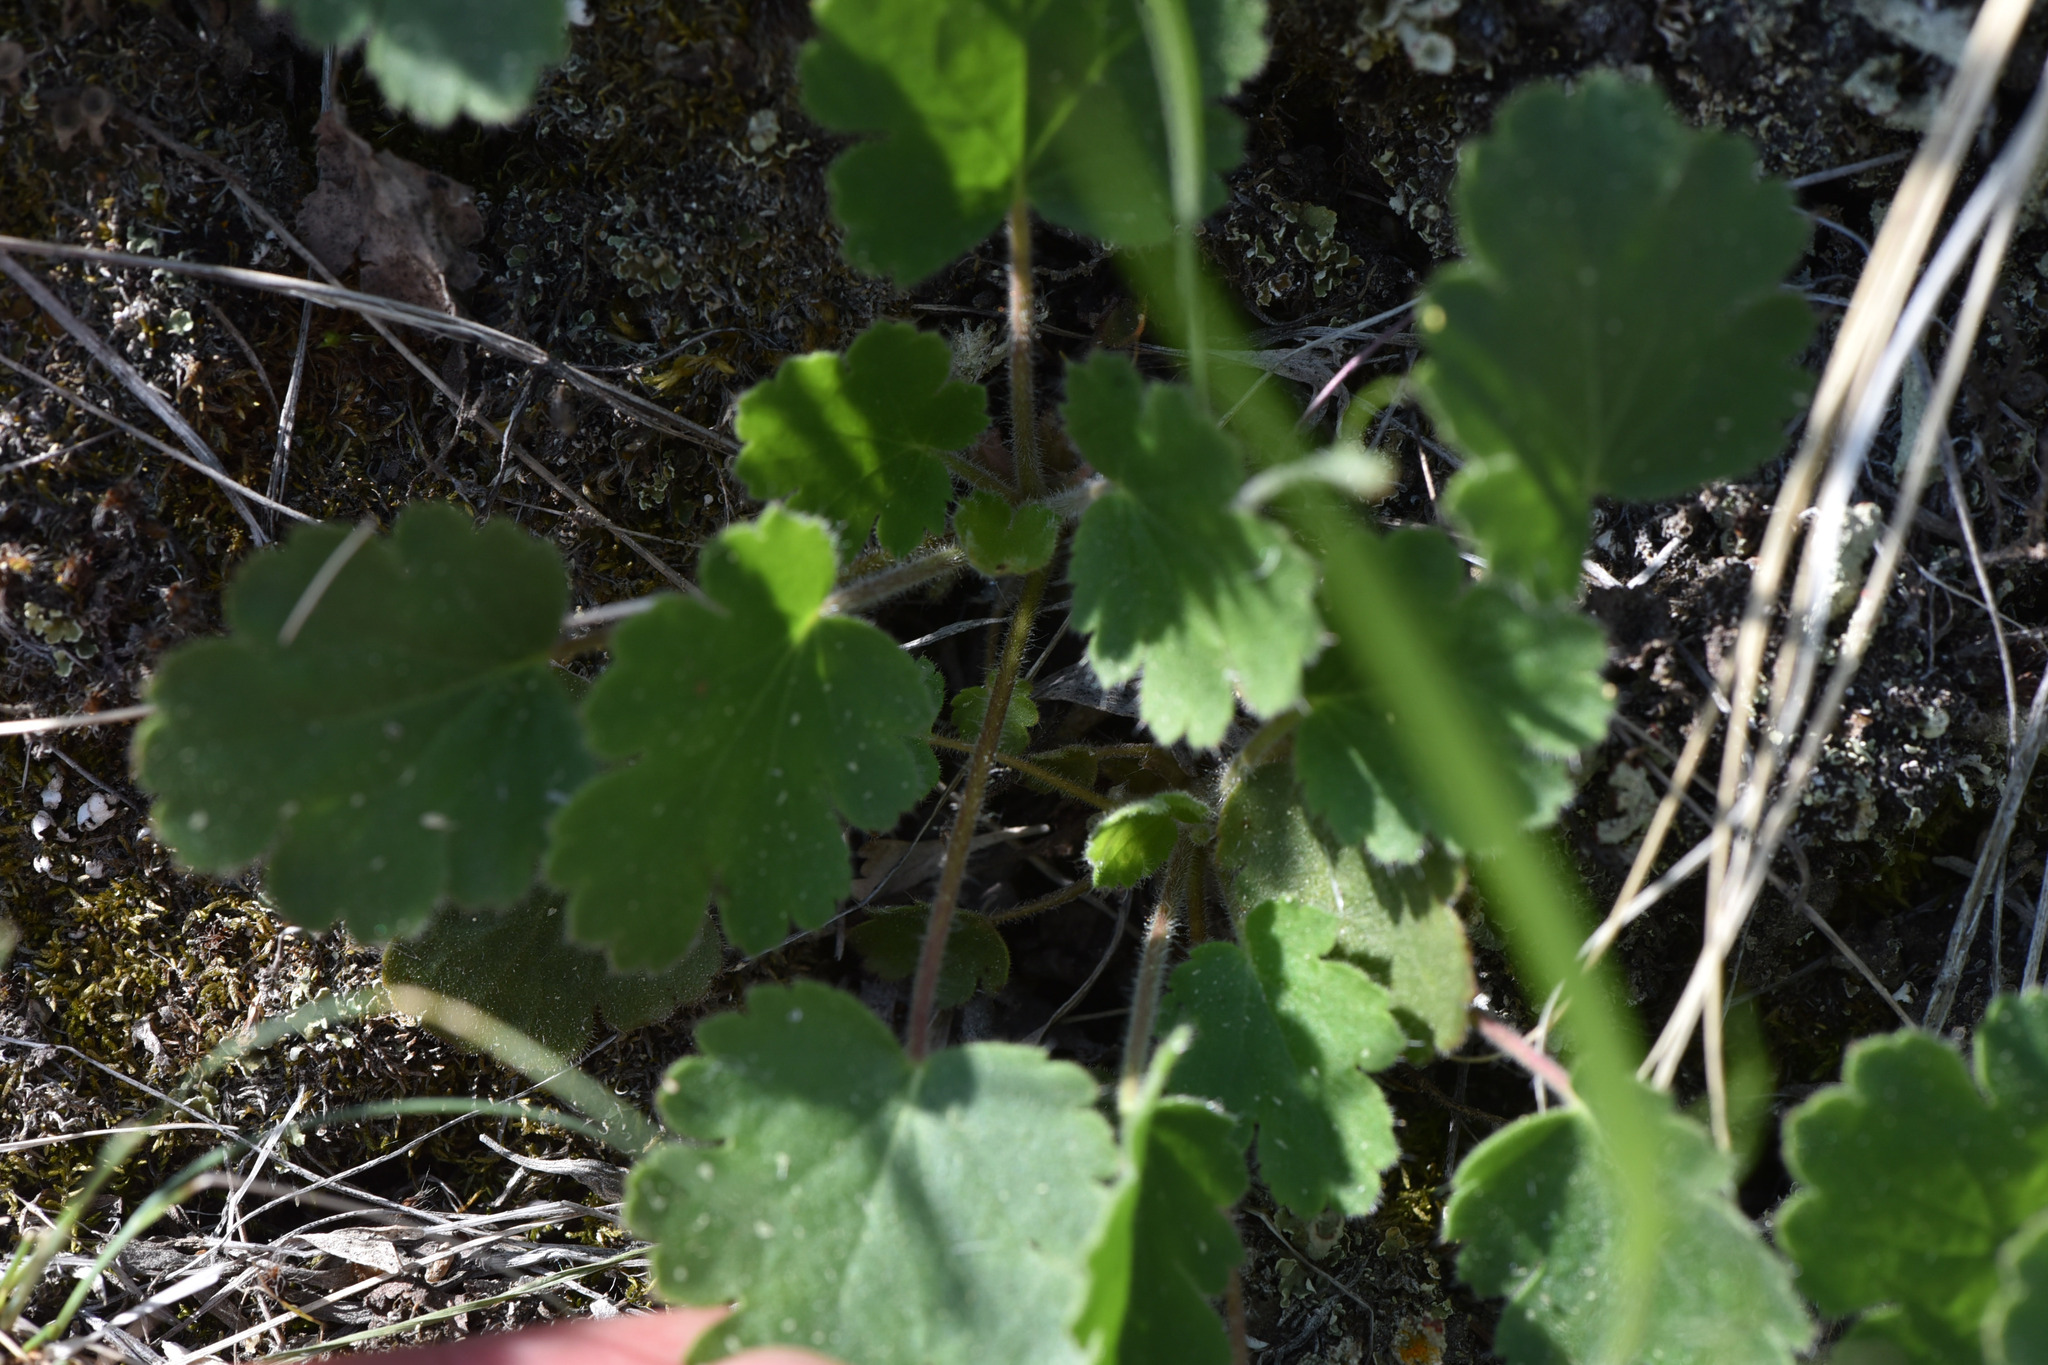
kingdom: Plantae
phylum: Tracheophyta
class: Magnoliopsida
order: Saxifragales
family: Saxifragaceae
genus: Heuchera
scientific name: Heuchera cylindrica
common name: Mat alumroot
